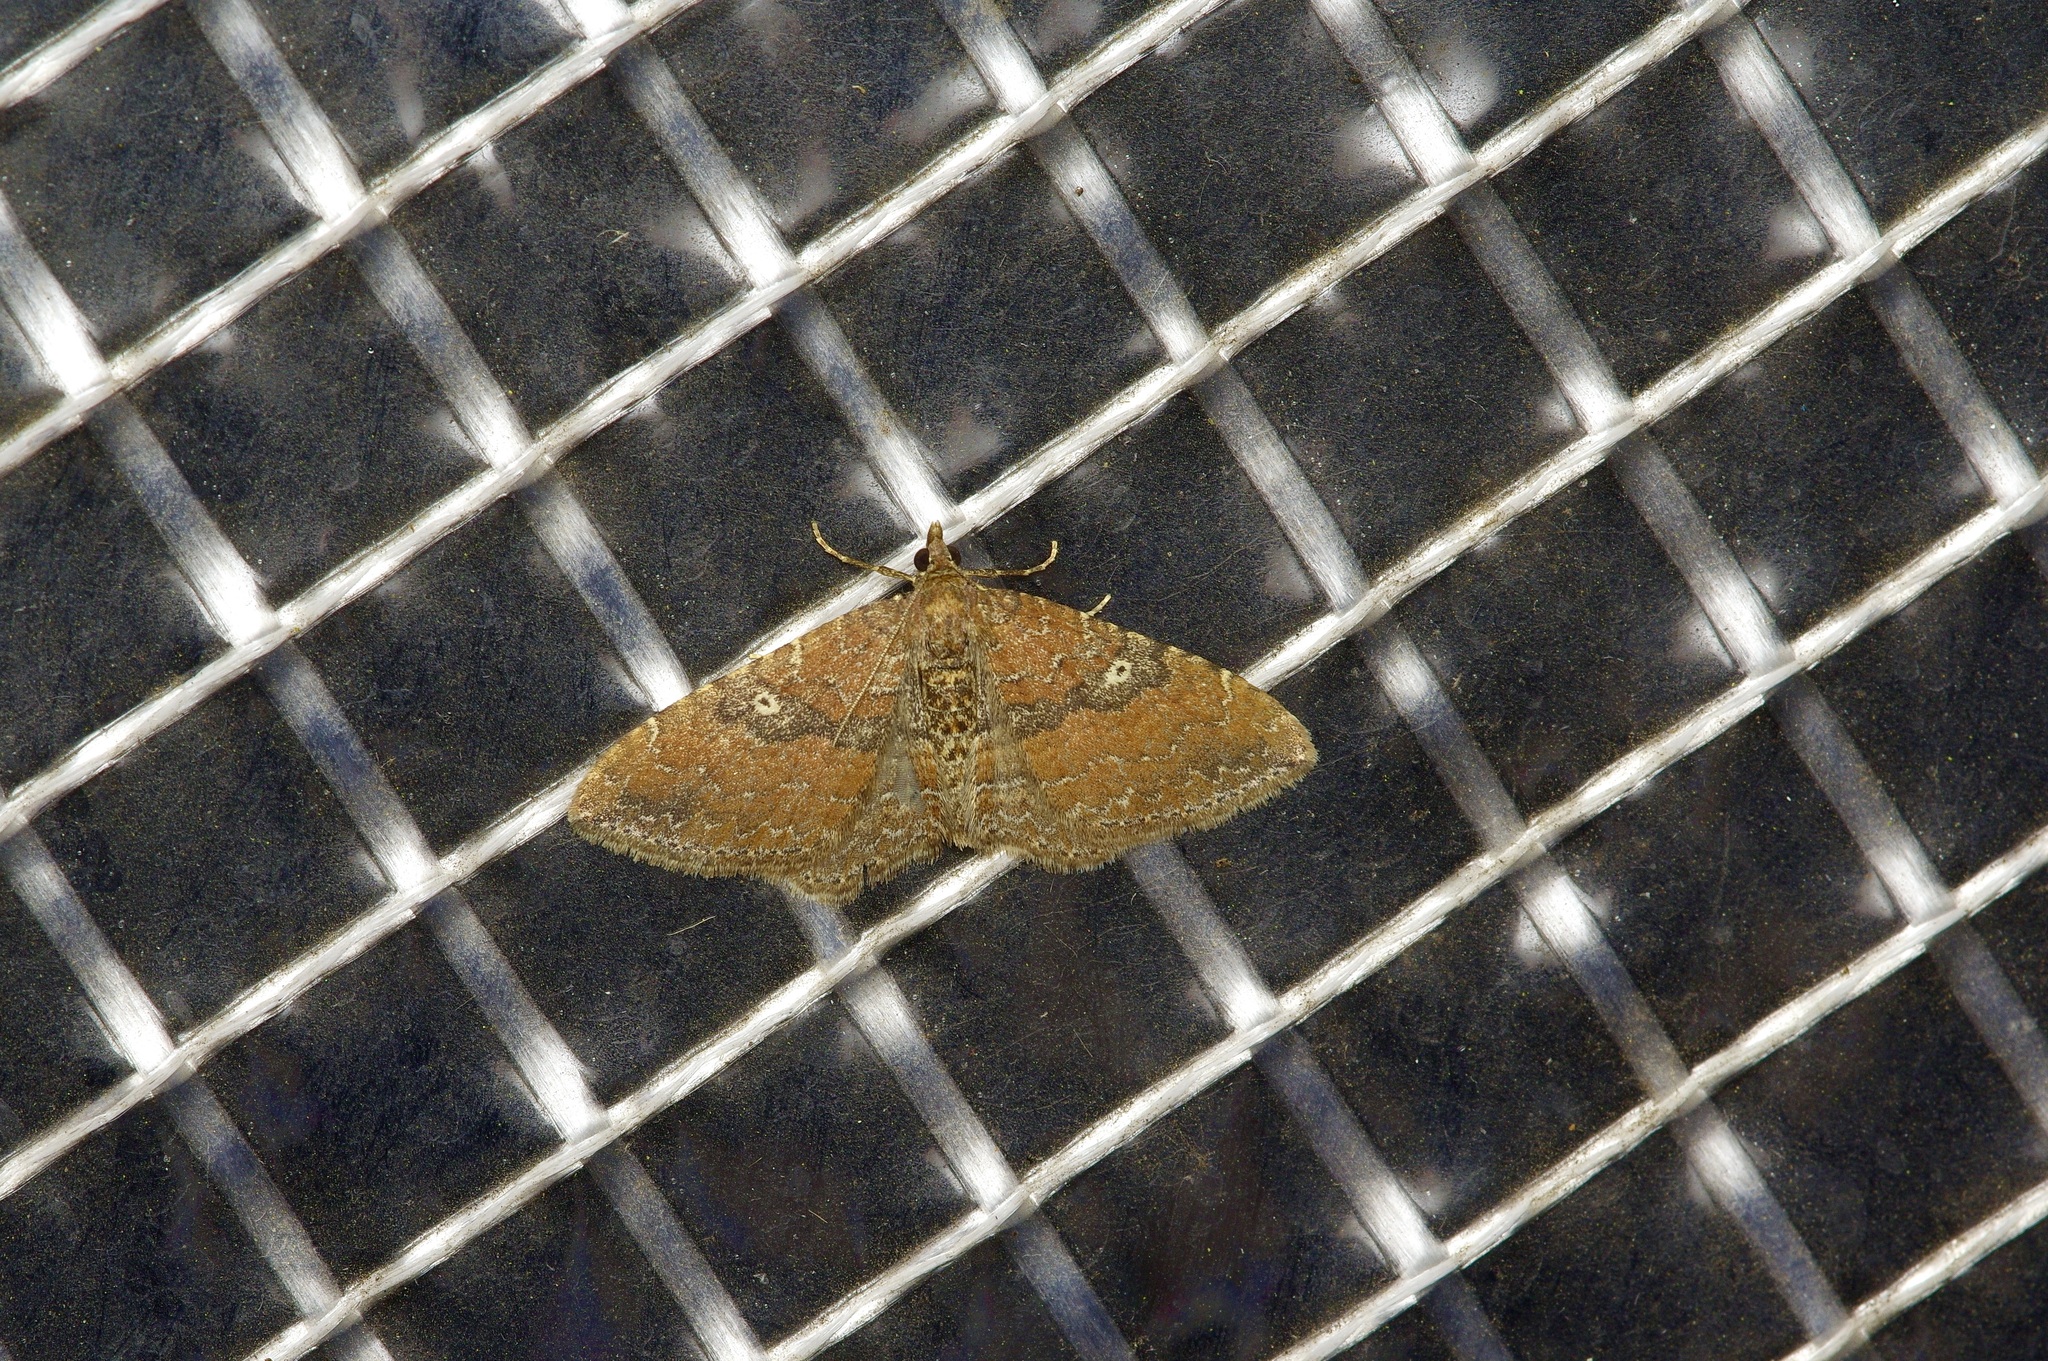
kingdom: Animalia
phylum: Arthropoda
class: Insecta
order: Lepidoptera
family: Geometridae
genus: Orthonama
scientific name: Orthonama obstipata
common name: The gem
